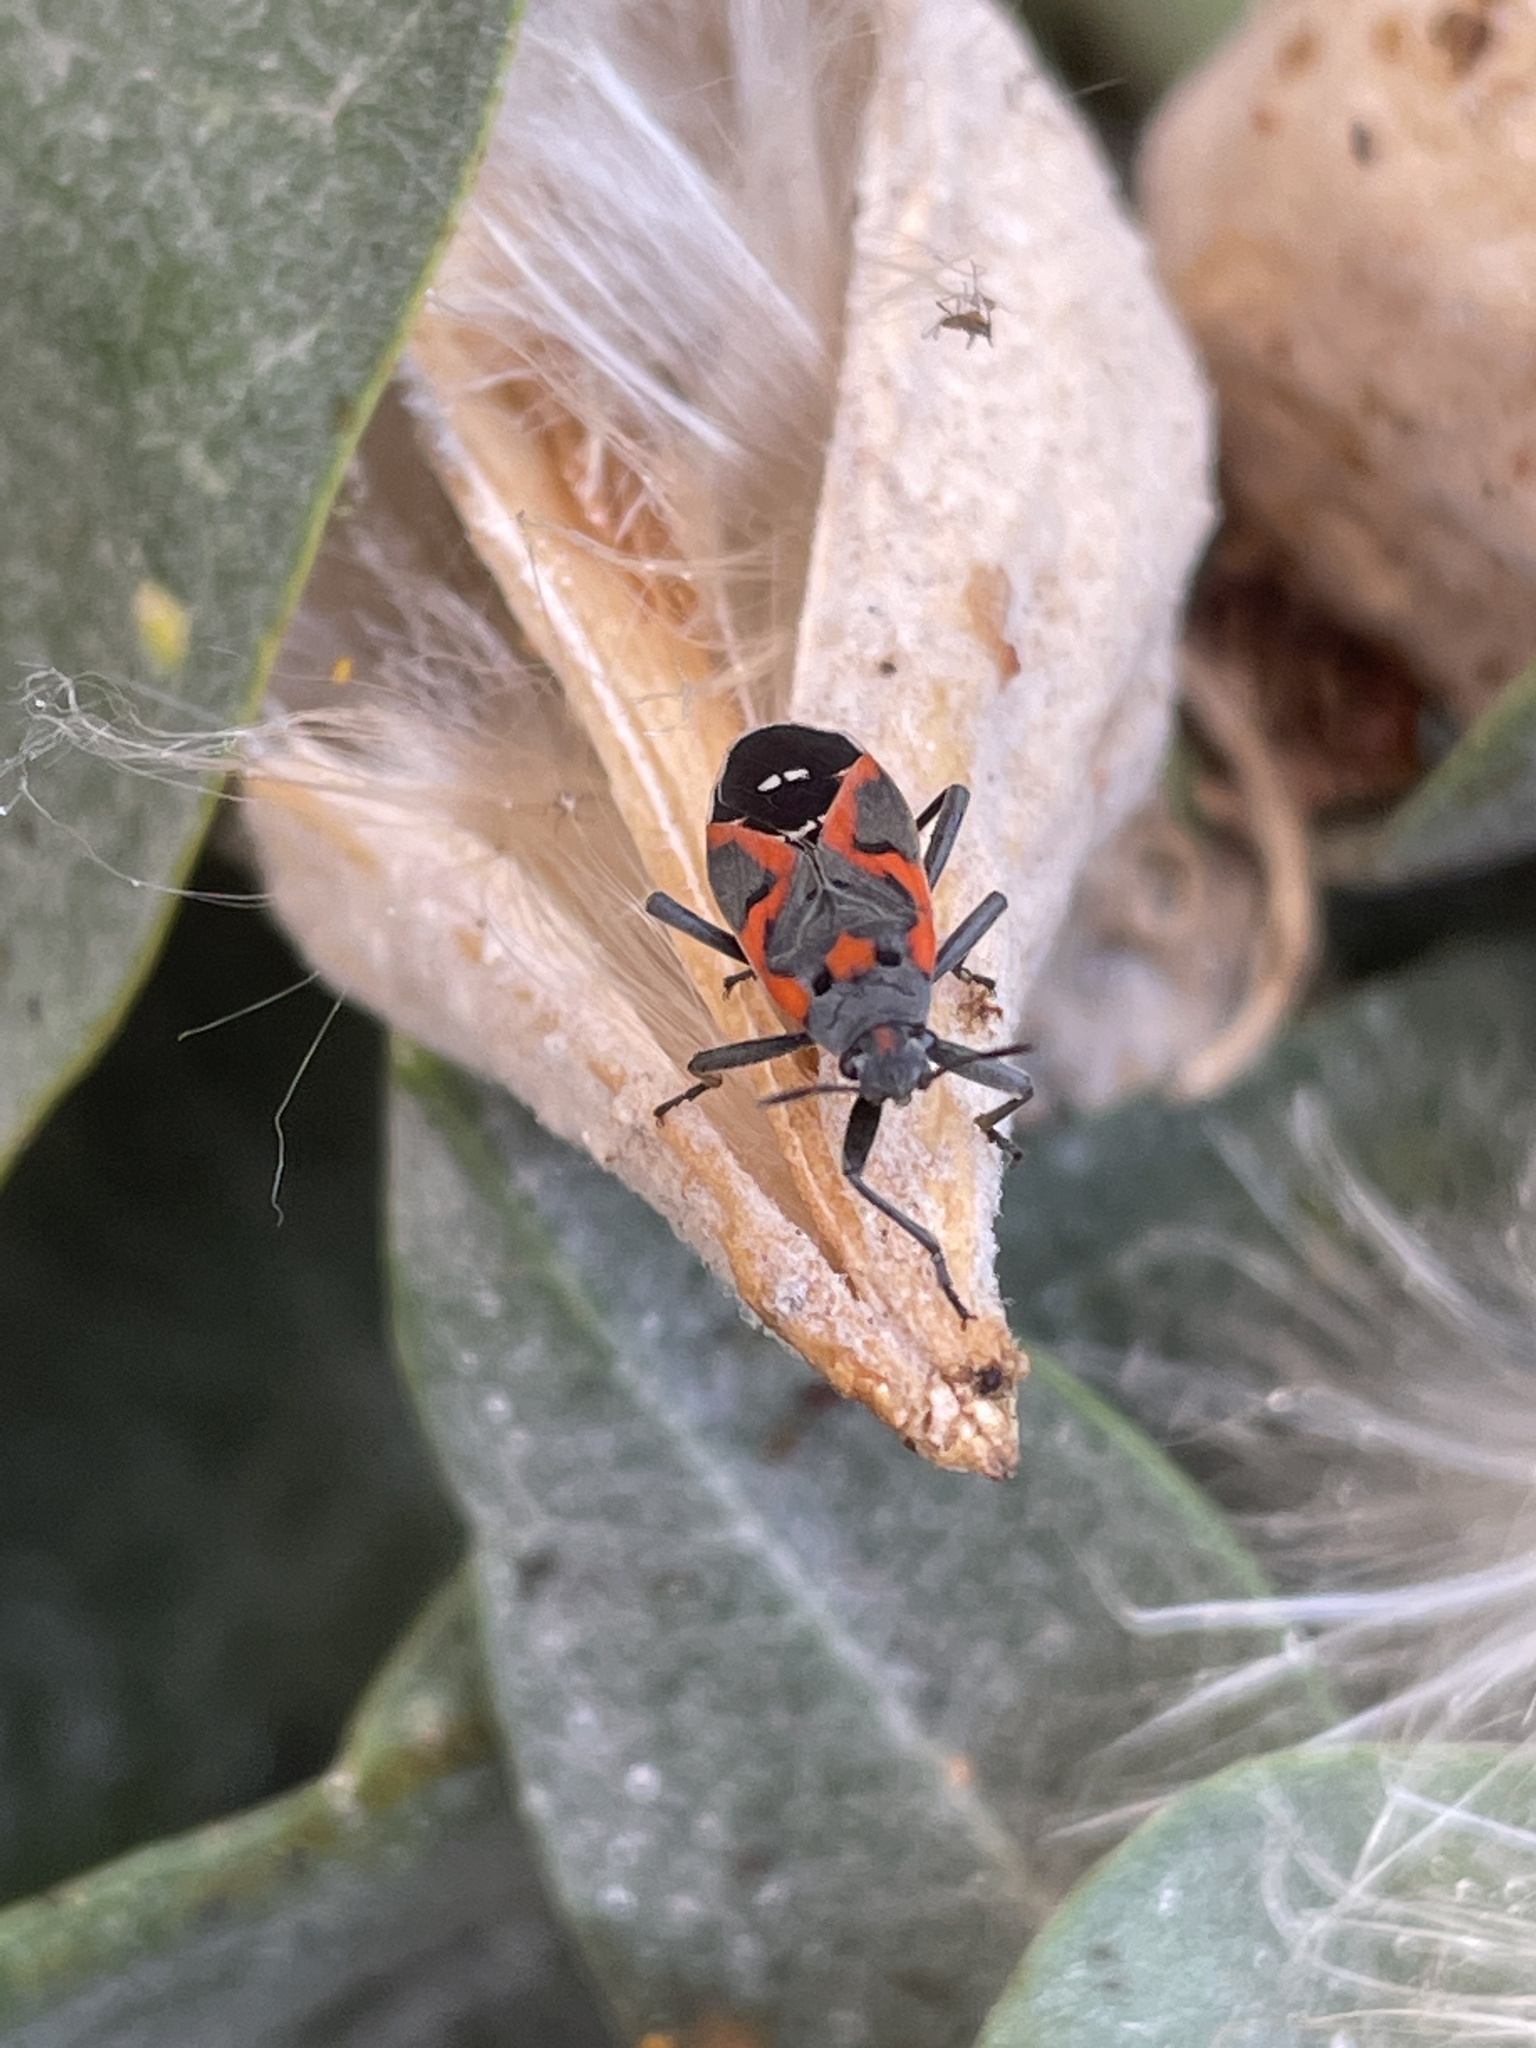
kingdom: Animalia
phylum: Arthropoda
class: Insecta
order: Hemiptera
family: Lygaeidae
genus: Lygaeus
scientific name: Lygaeus kalmii
